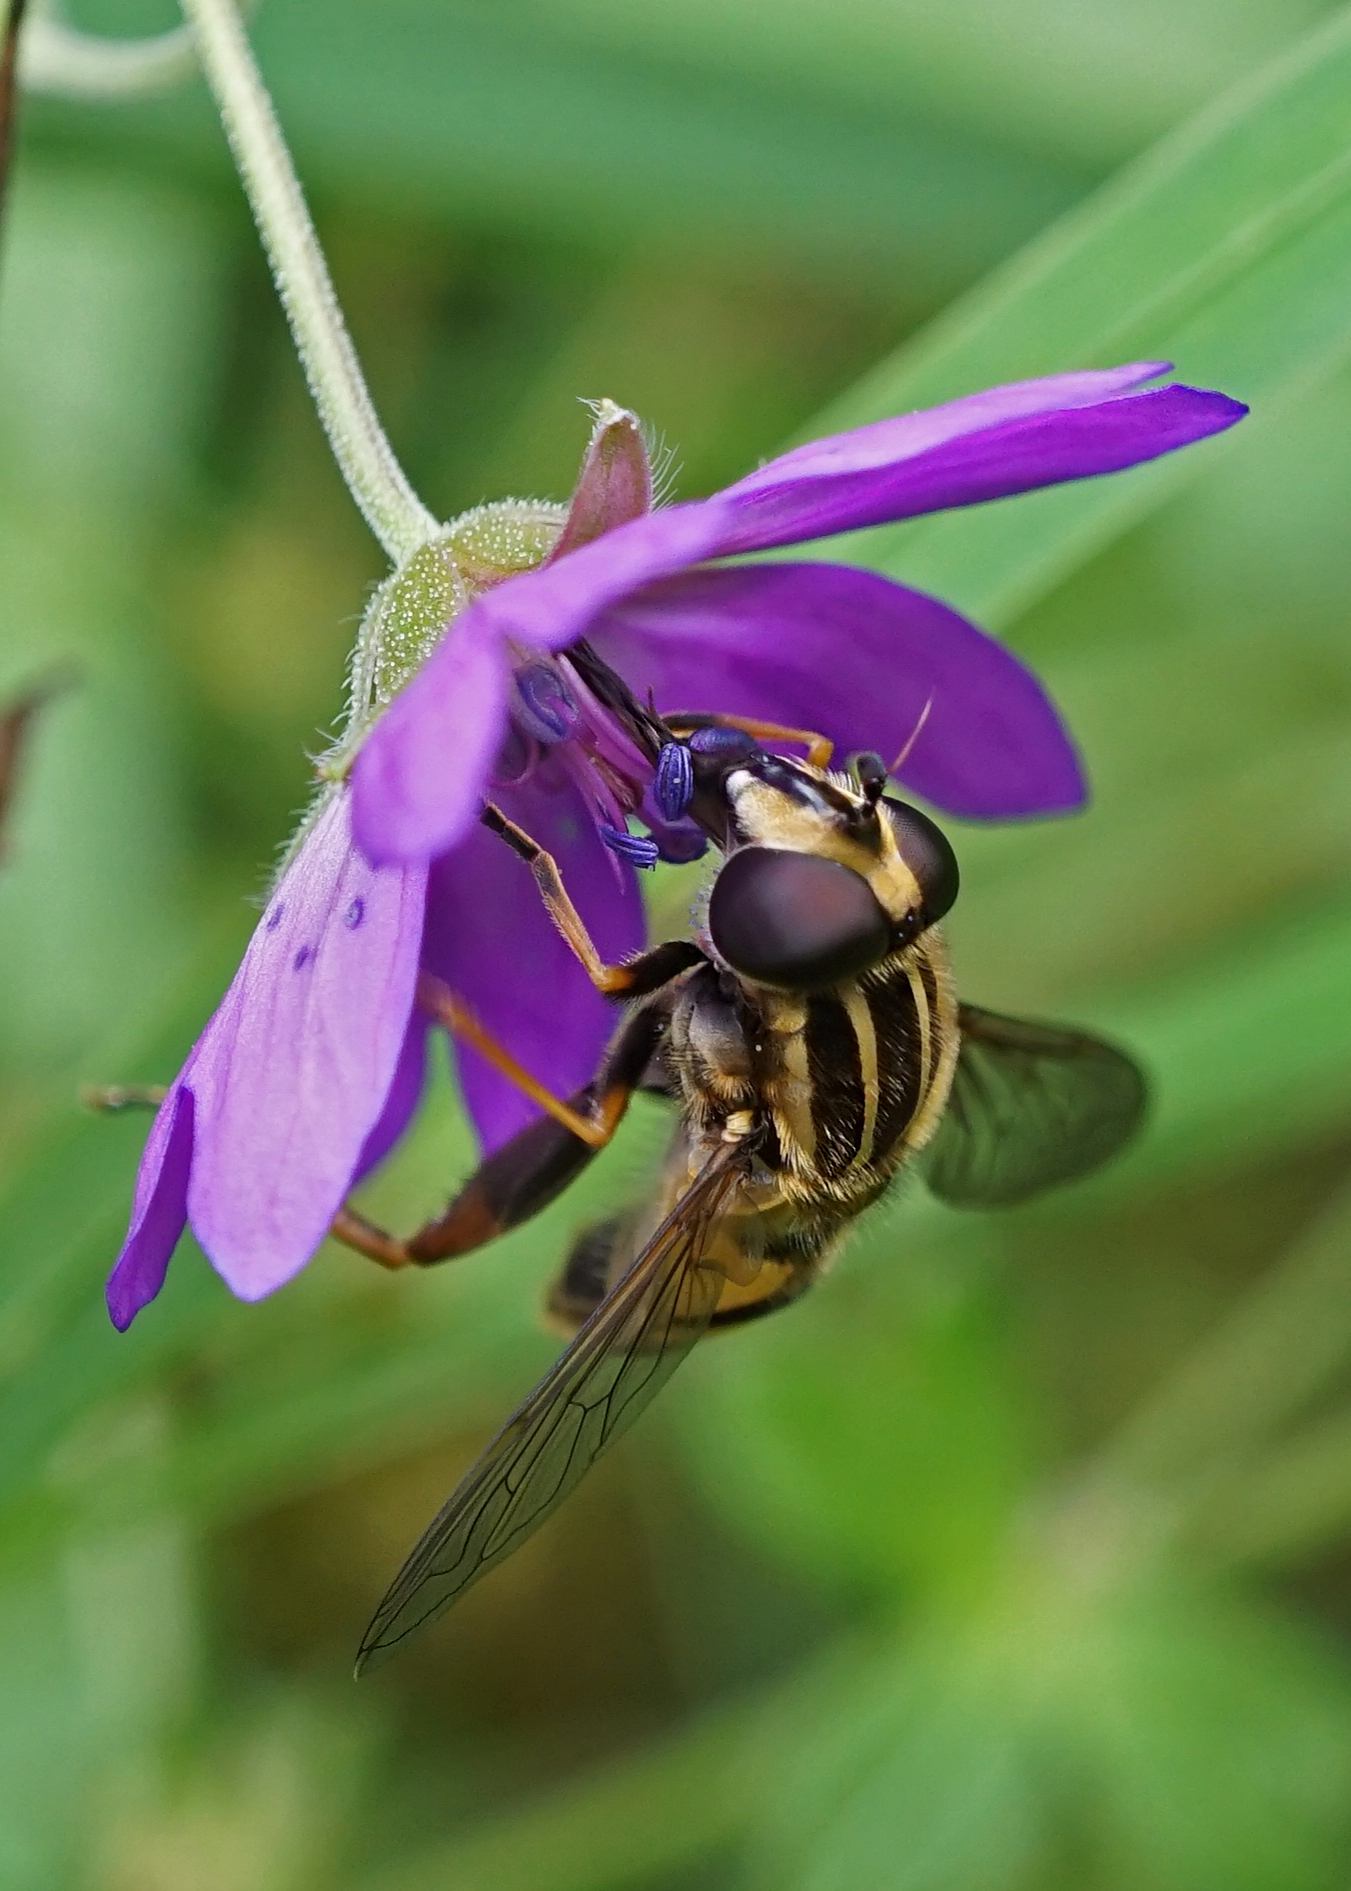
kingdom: Animalia
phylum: Arthropoda
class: Insecta
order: Diptera
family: Syrphidae
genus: Helophilus
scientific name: Helophilus pendulus
